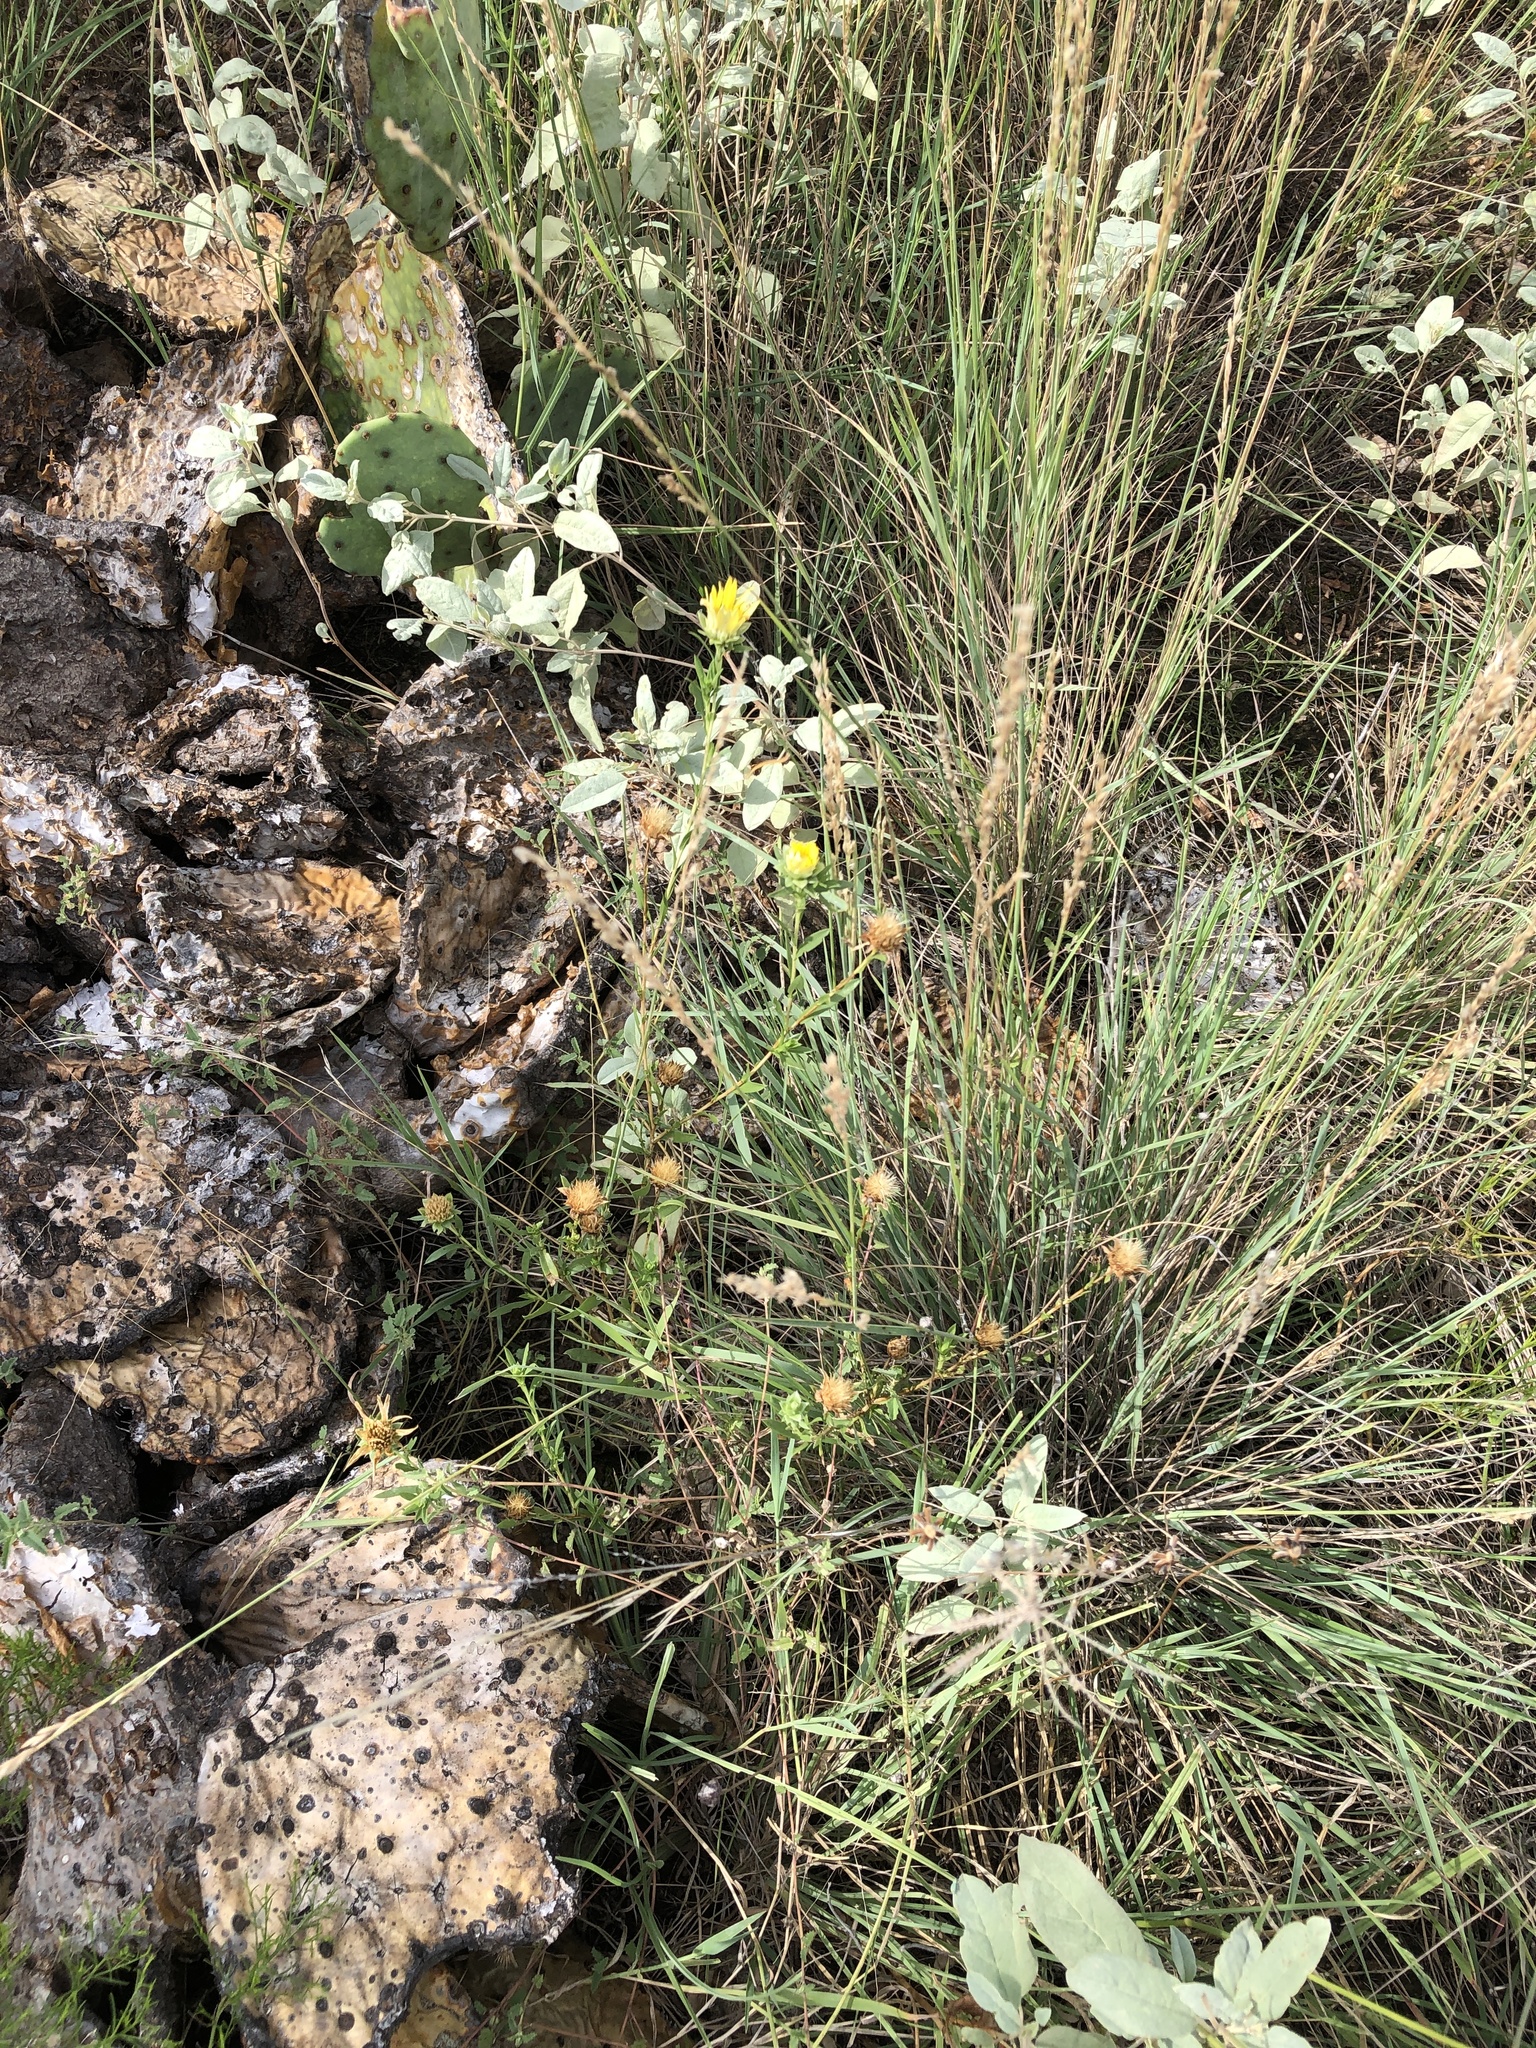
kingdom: Plantae
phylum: Tracheophyta
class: Magnoliopsida
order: Asterales
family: Asteraceae
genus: Xanthisma
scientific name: Xanthisma texanum
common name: Texas sleepy daisy
